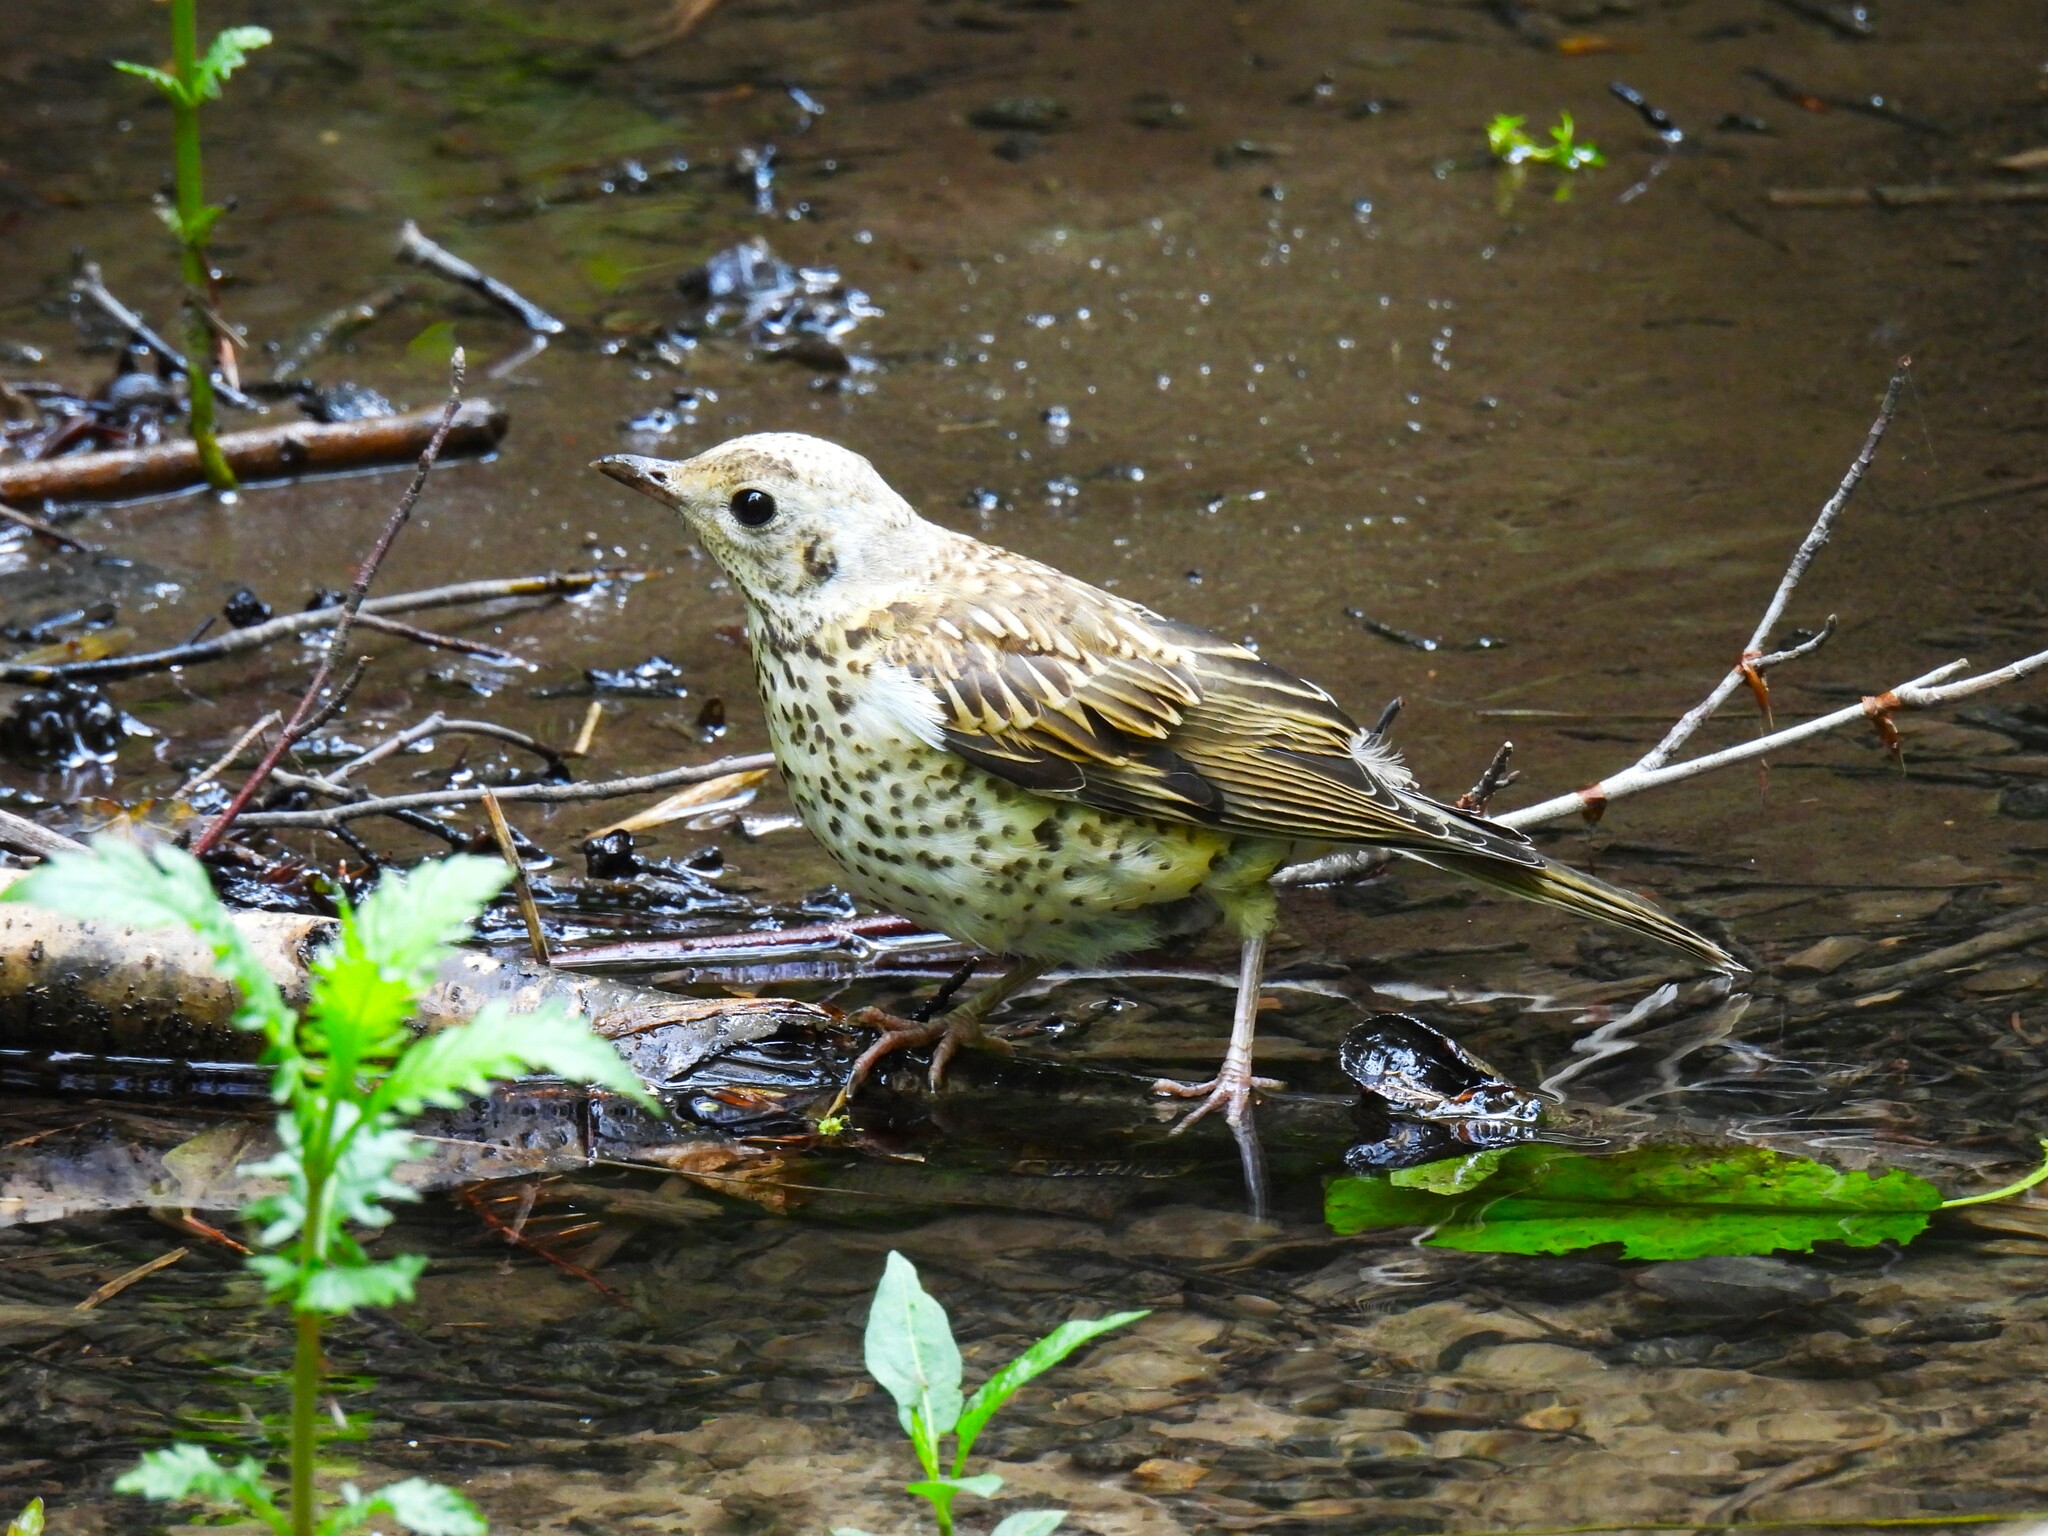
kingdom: Animalia
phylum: Chordata
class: Aves
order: Passeriformes
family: Turdidae
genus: Turdus
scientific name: Turdus viscivorus
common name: Mistle thrush
